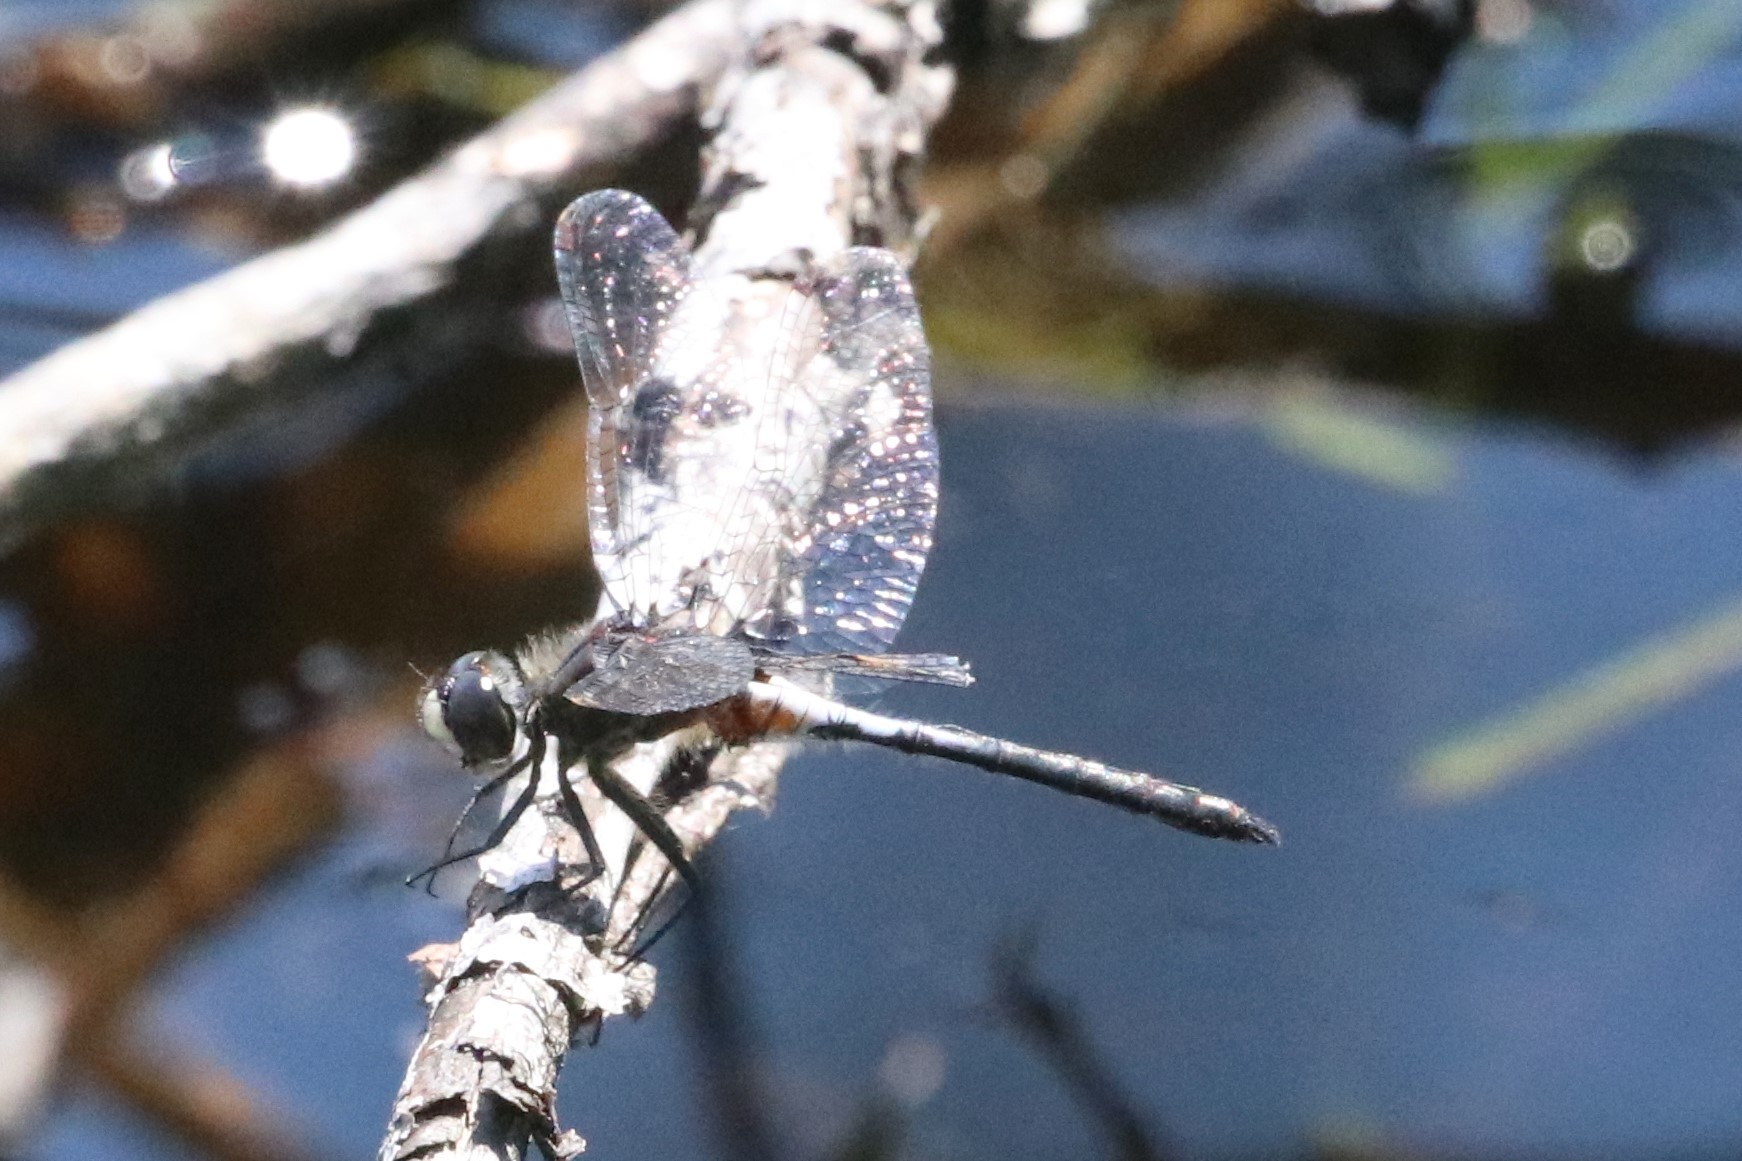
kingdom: Animalia
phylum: Arthropoda
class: Insecta
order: Odonata
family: Libellulidae
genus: Leucorrhinia
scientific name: Leucorrhinia proxima
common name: Belted whiteface
